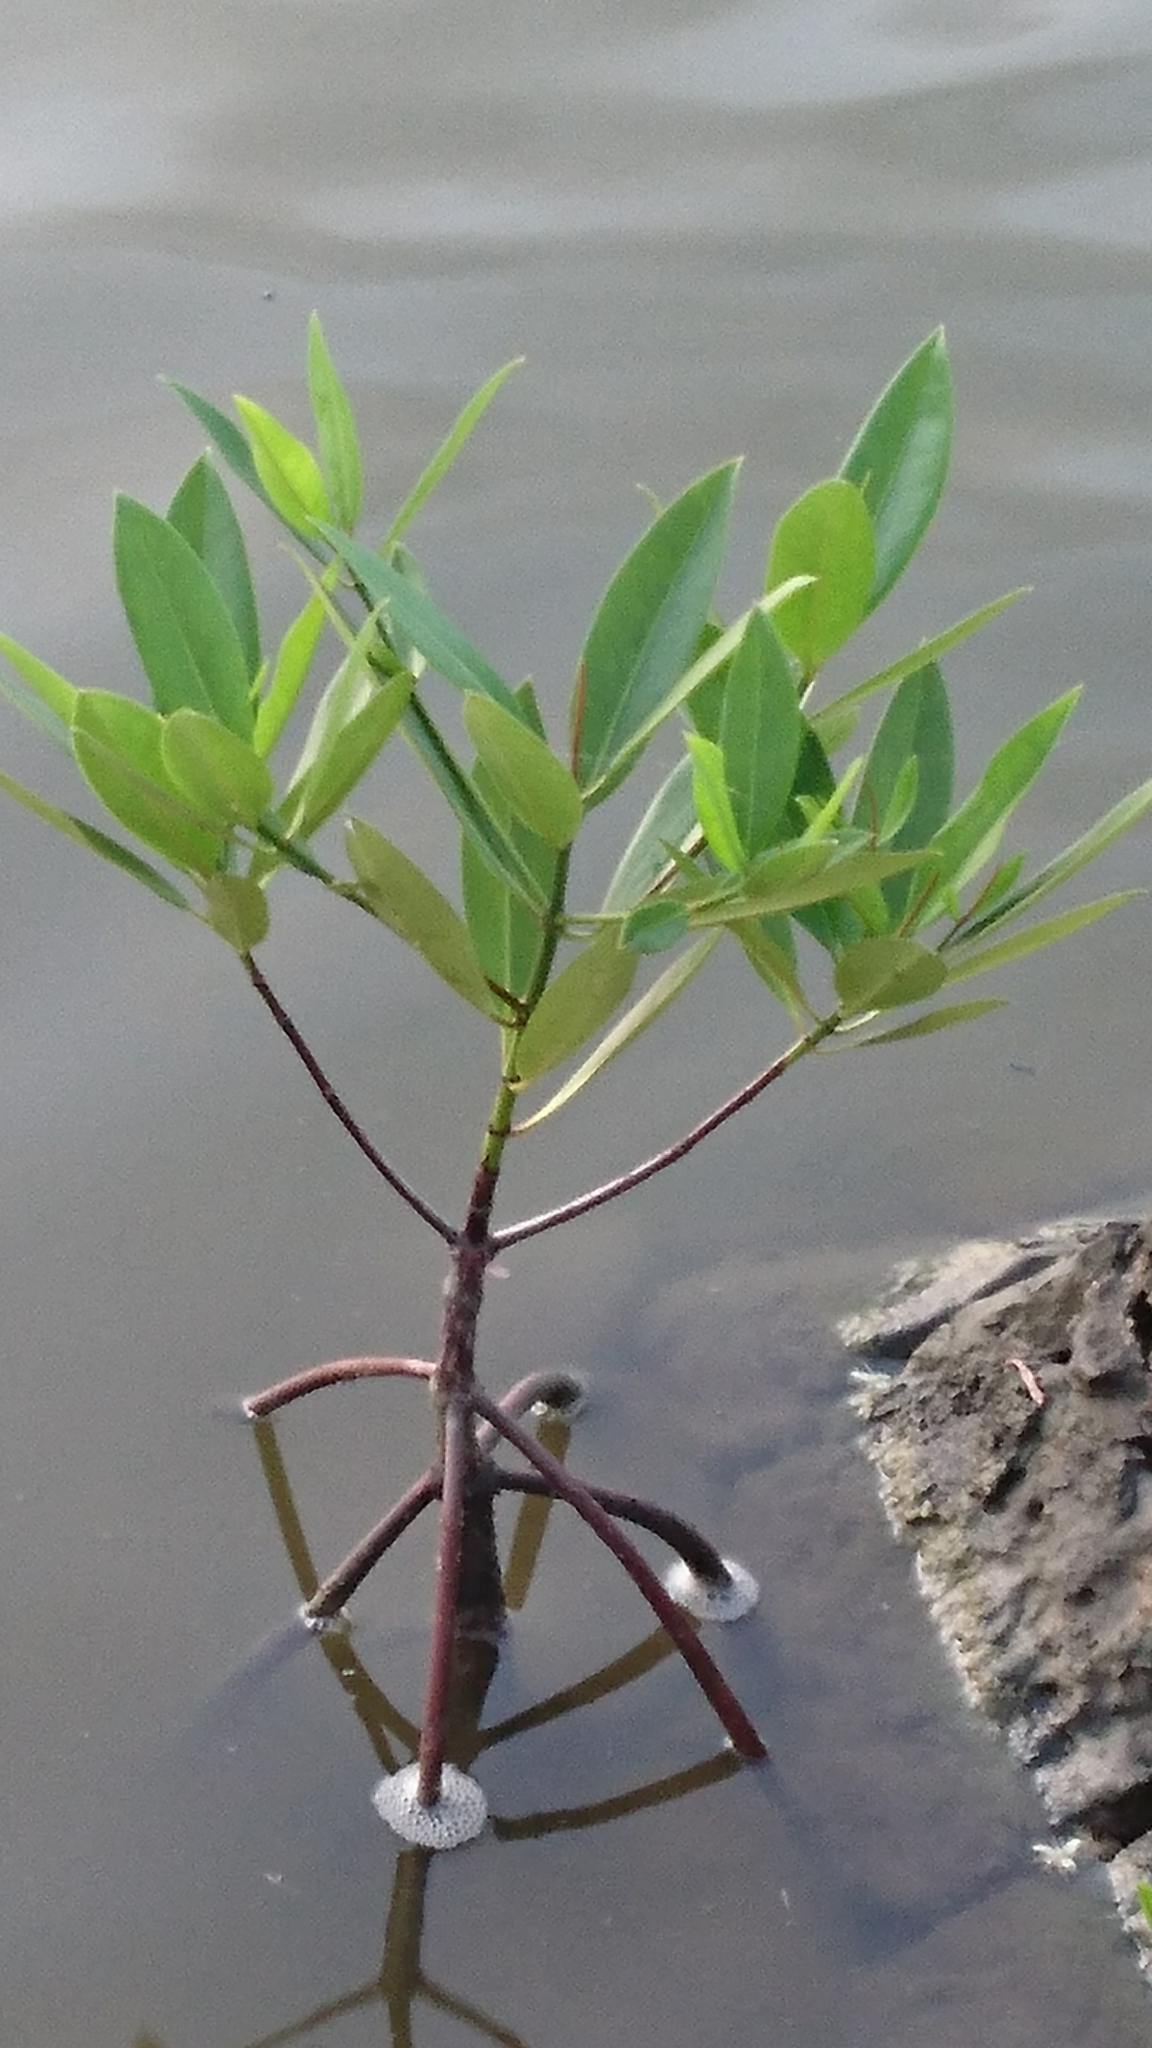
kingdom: Plantae
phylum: Tracheophyta
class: Magnoliopsida
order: Malpighiales
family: Rhizophoraceae
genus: Rhizophora
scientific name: Rhizophora
